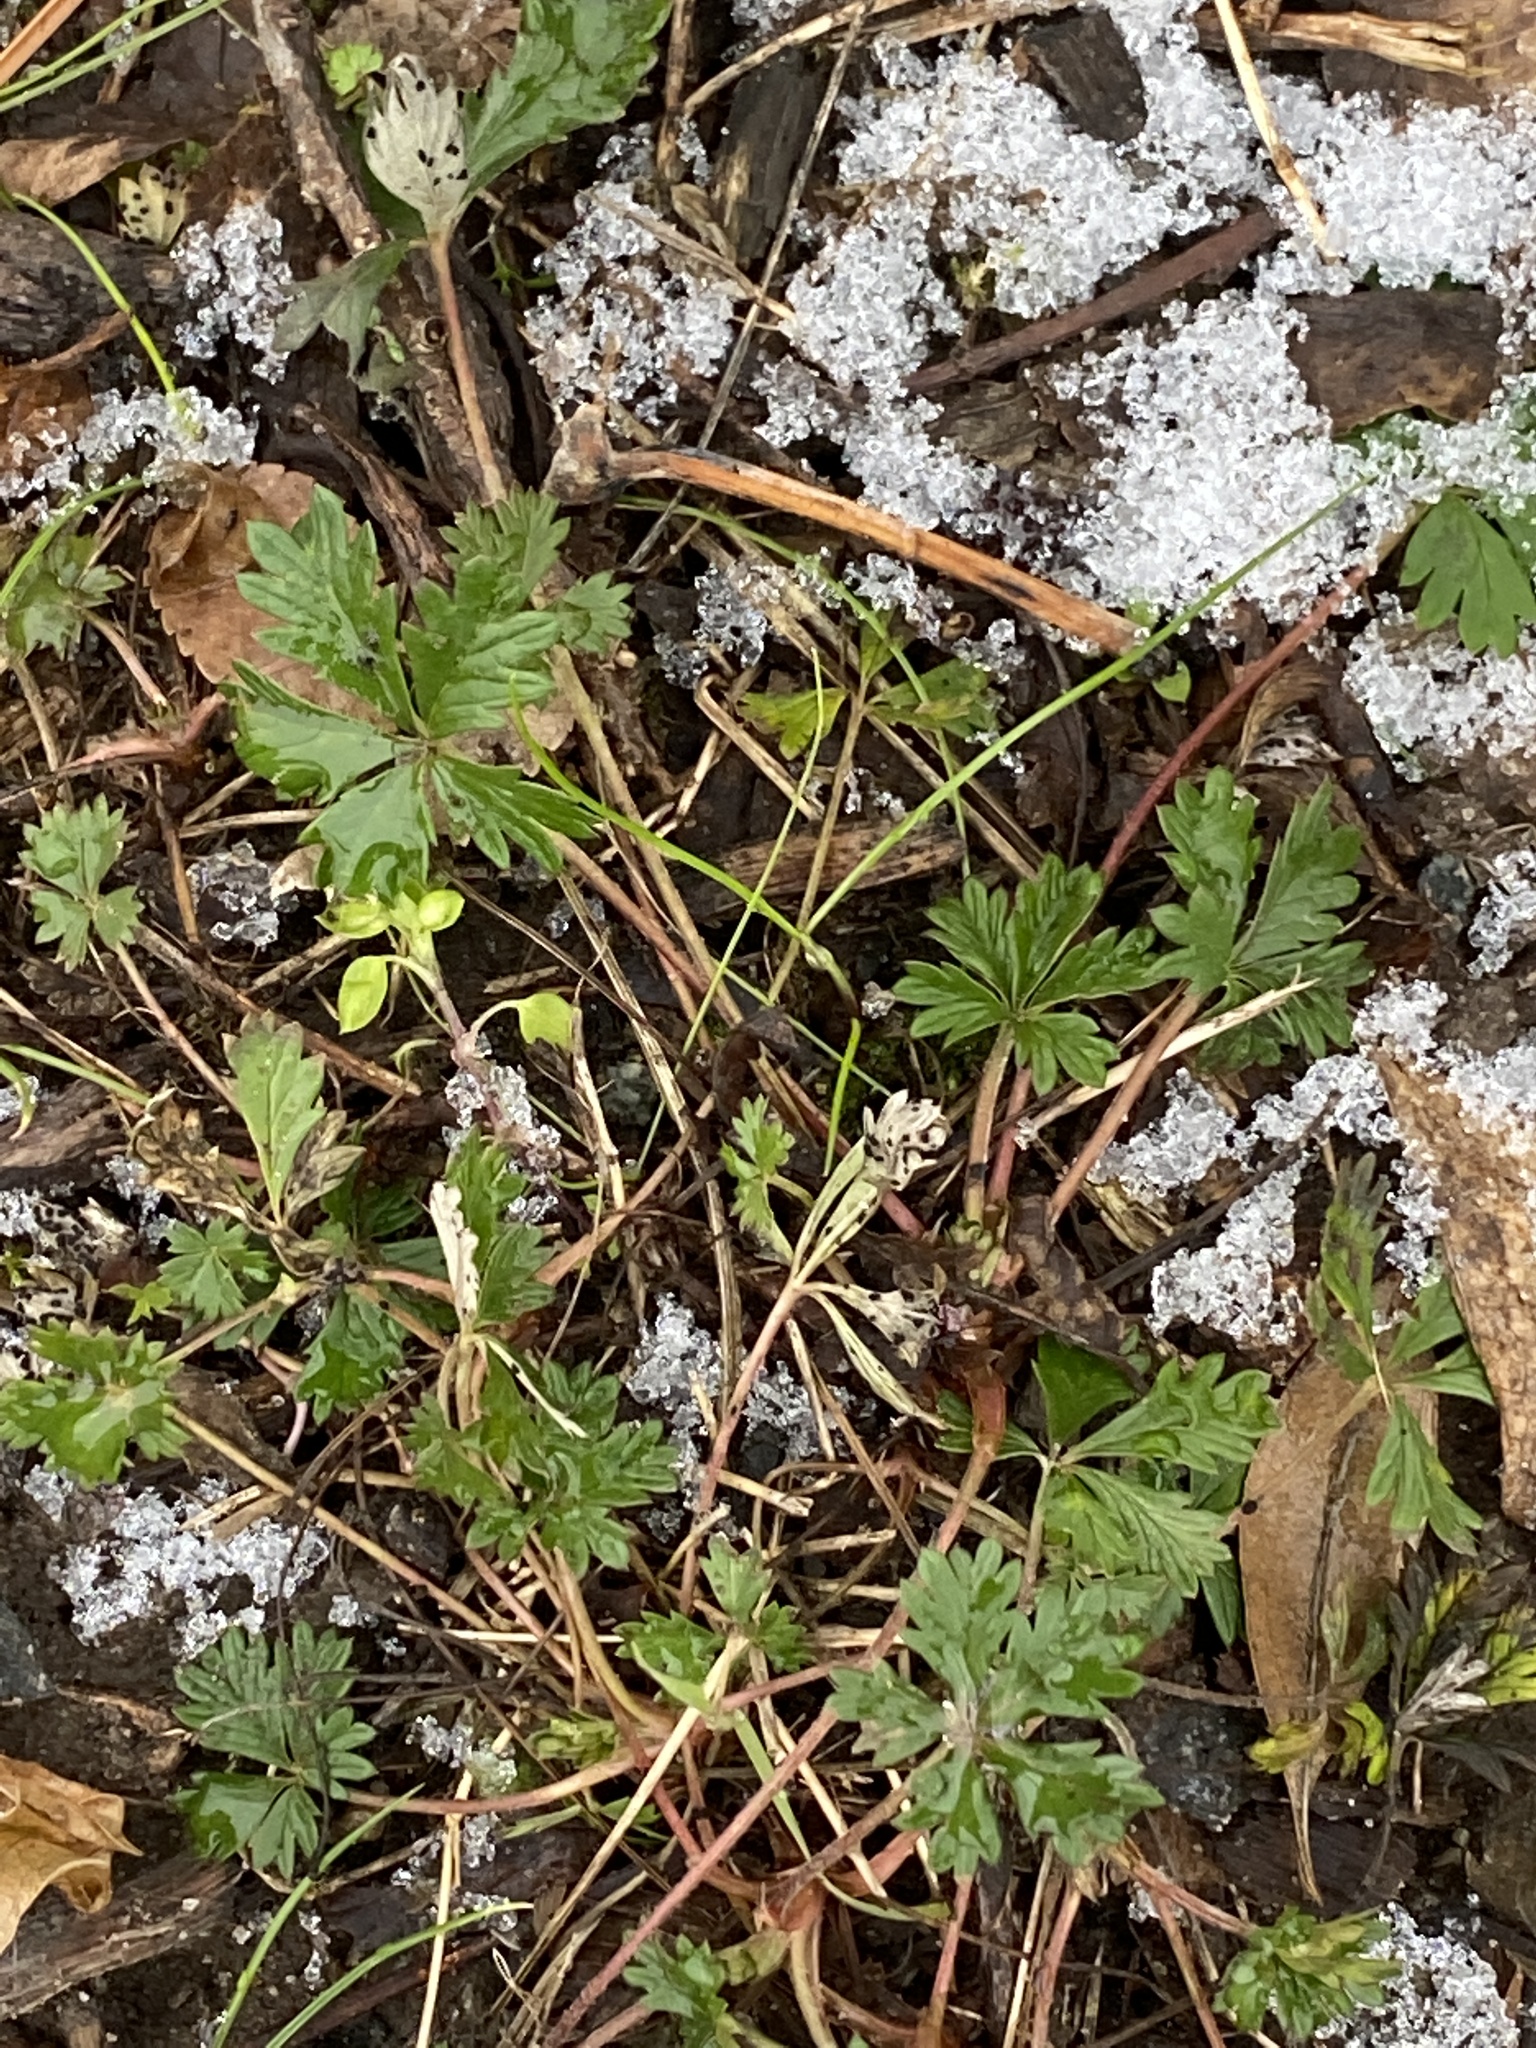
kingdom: Plantae
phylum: Tracheophyta
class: Magnoliopsida
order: Rosales
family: Rosaceae
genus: Potentilla
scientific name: Potentilla argentea
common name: Hoary cinquefoil
